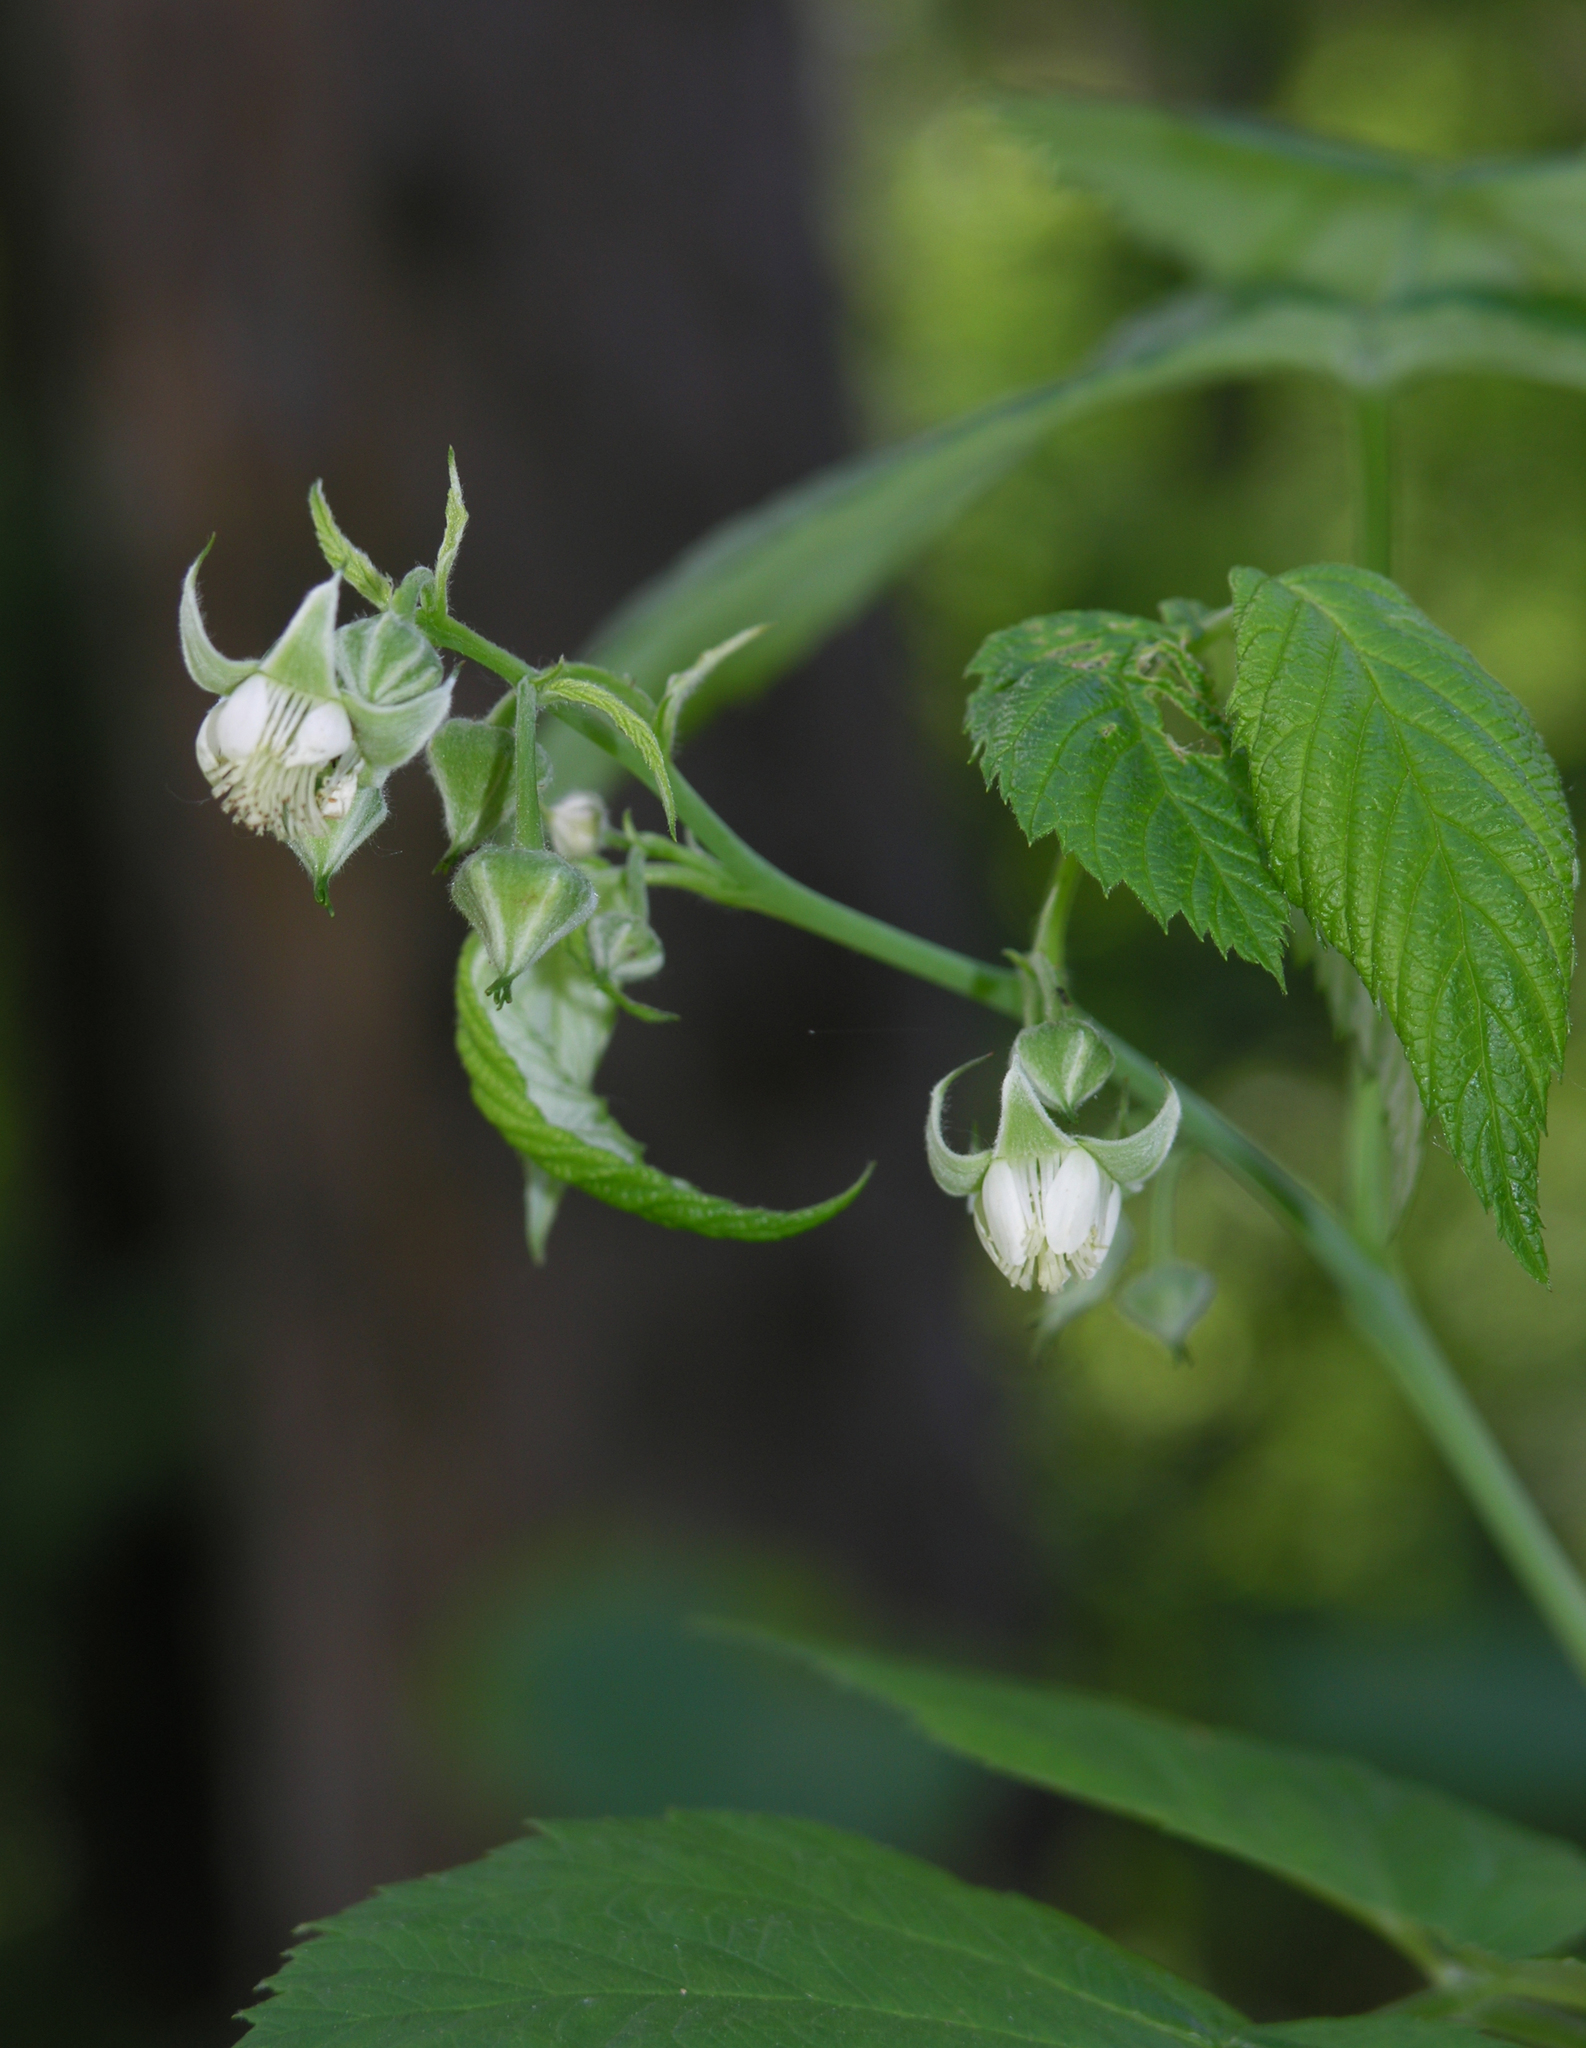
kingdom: Plantae
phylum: Tracheophyta
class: Magnoliopsida
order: Rosales
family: Rosaceae
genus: Rubus
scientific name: Rubus idaeus
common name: Raspberry
